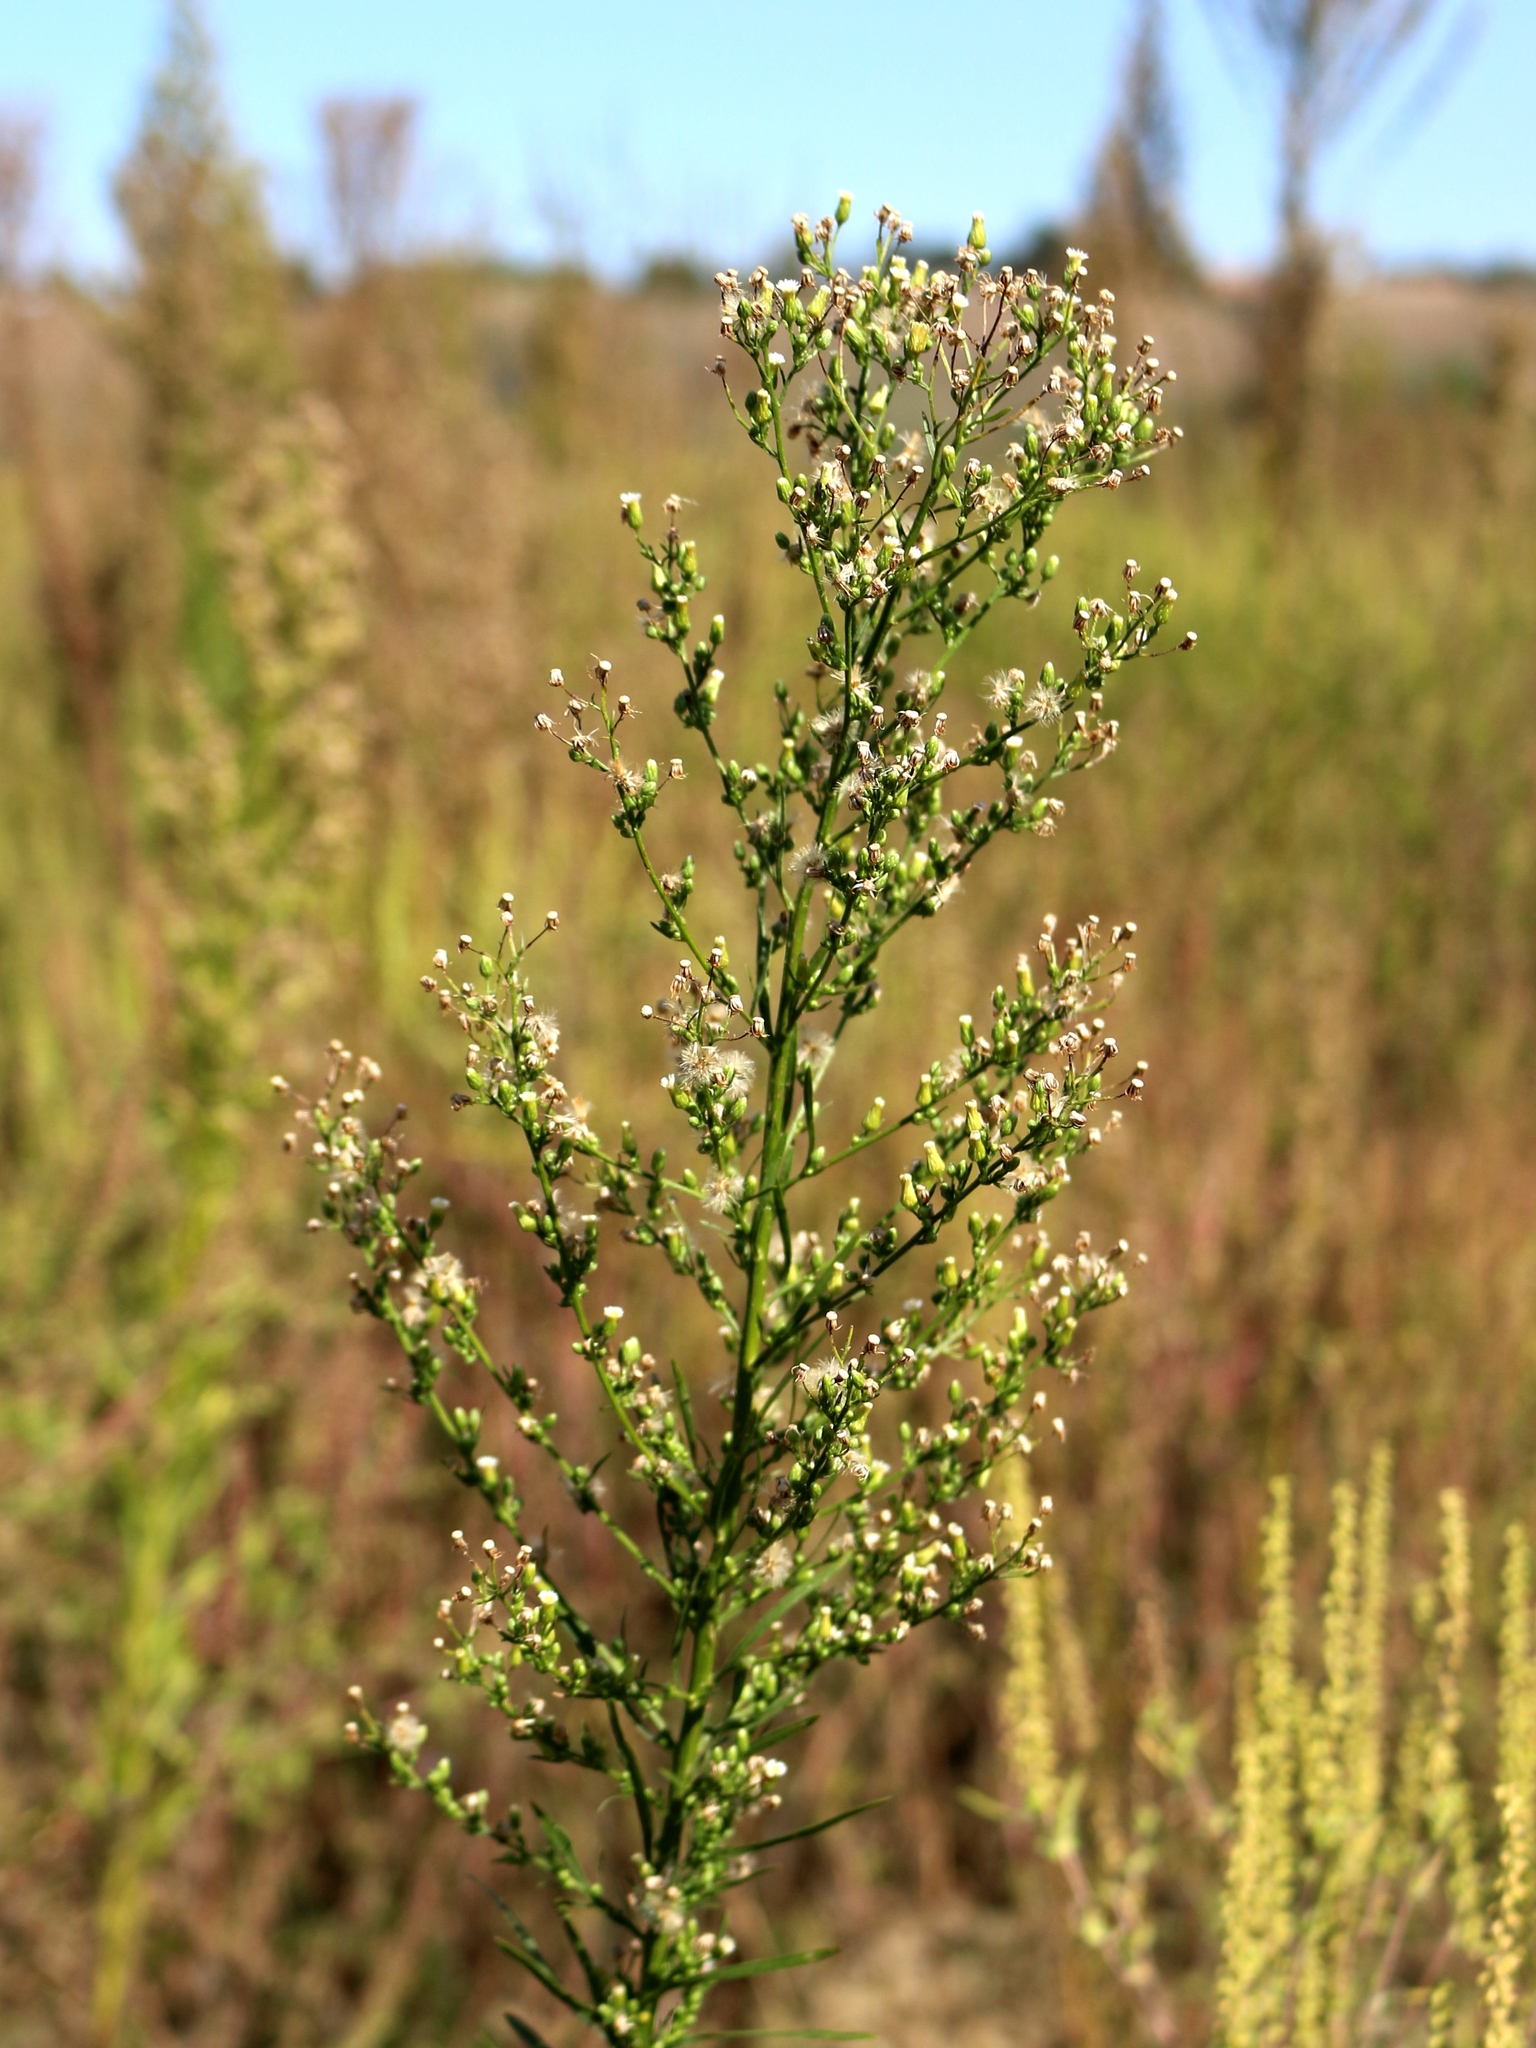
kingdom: Plantae
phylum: Tracheophyta
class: Magnoliopsida
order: Asterales
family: Asteraceae
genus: Erigeron
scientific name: Erigeron canadensis
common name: Canadian fleabane
